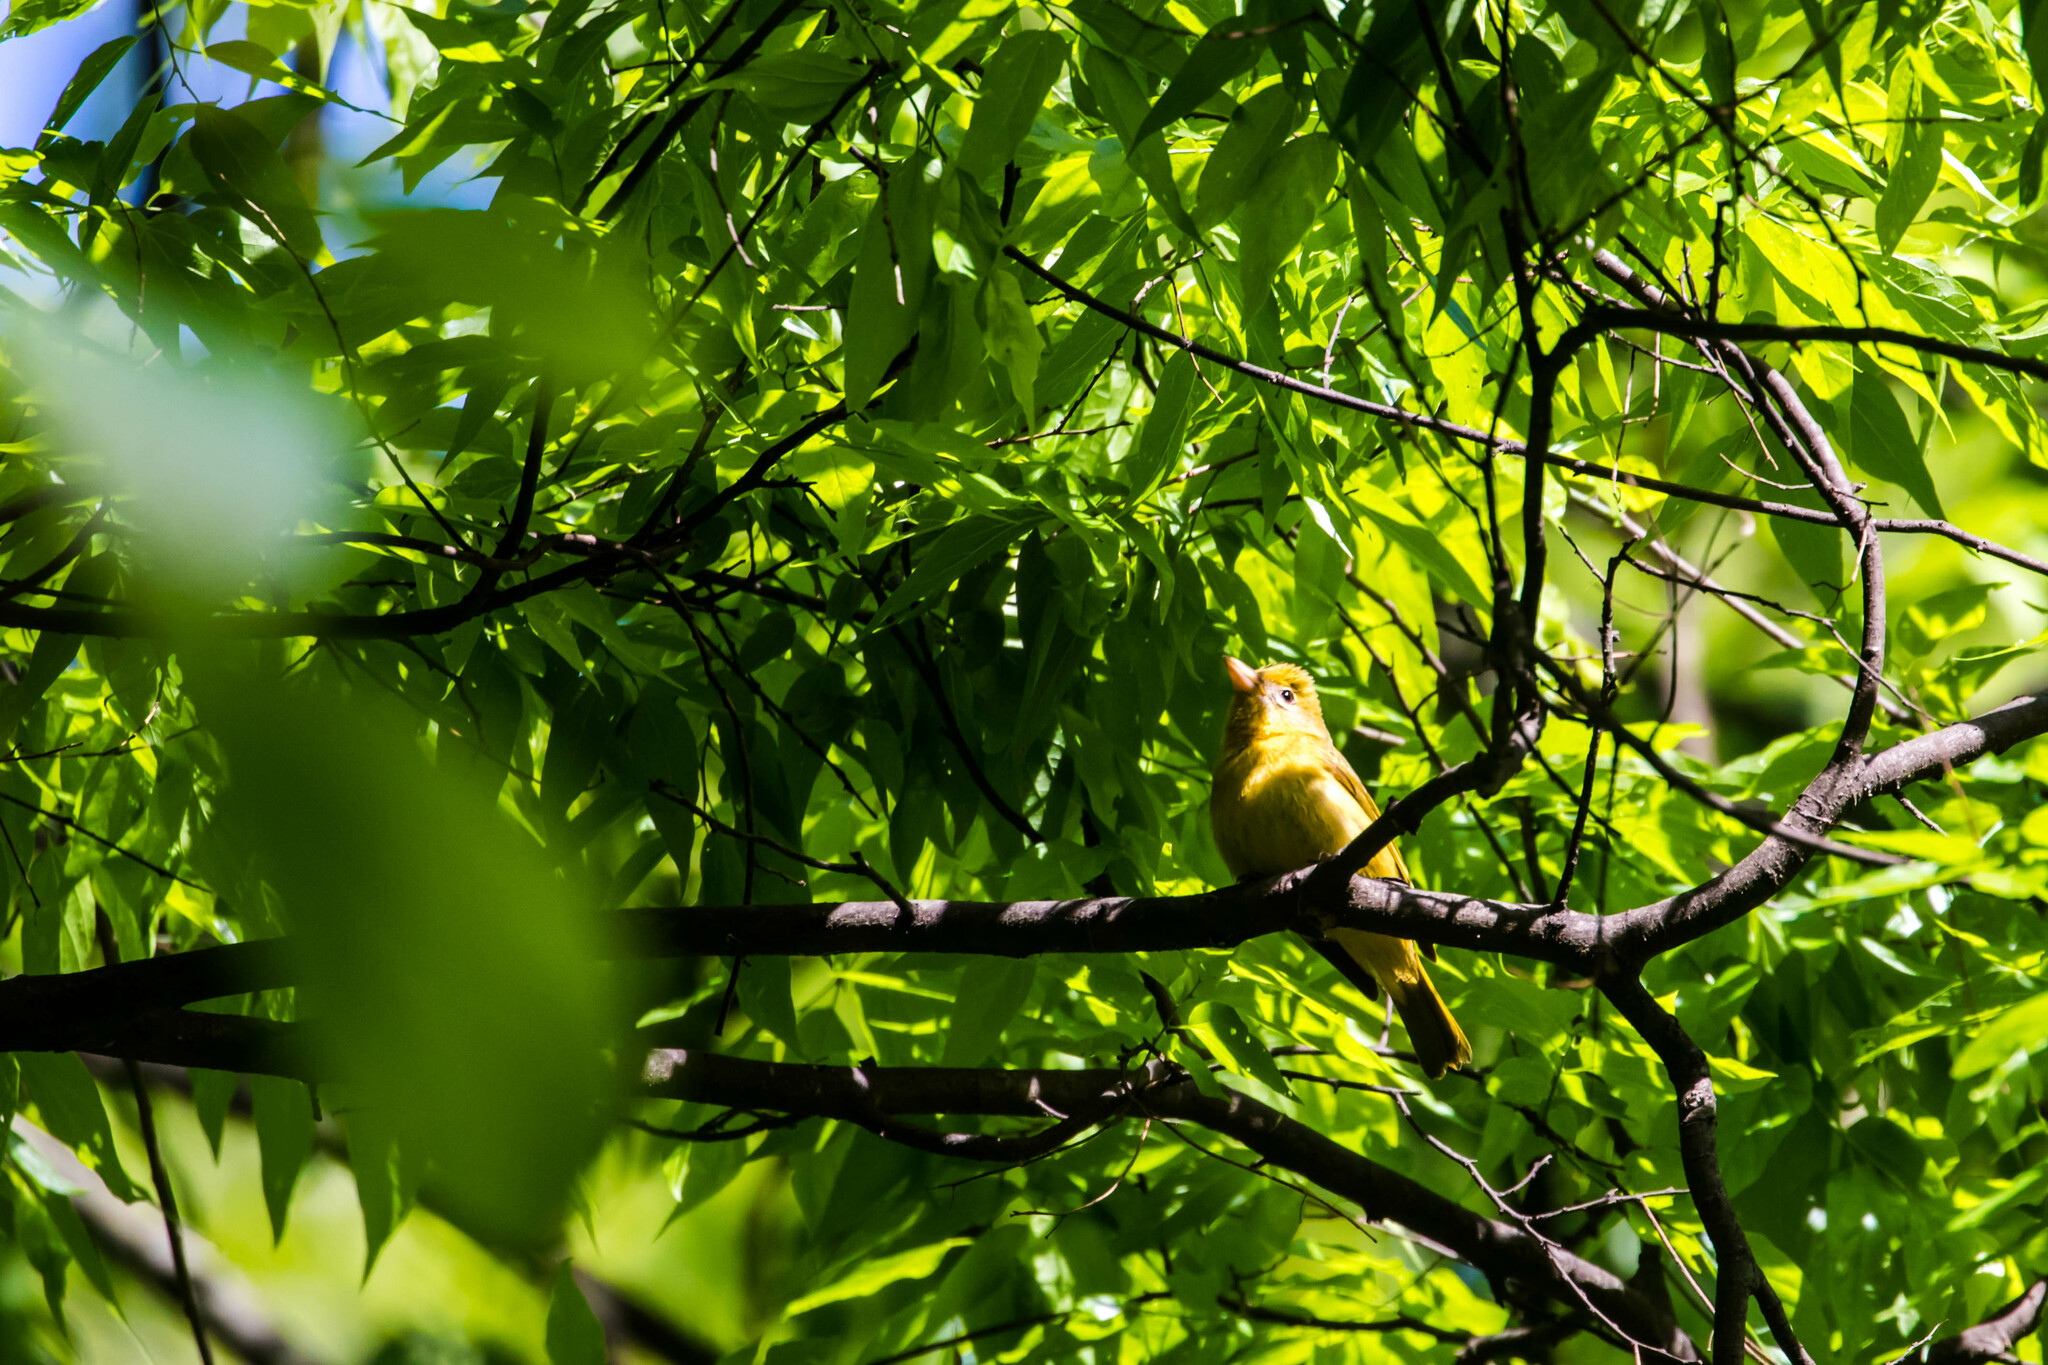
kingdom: Animalia
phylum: Chordata
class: Aves
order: Passeriformes
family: Cardinalidae
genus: Piranga
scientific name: Piranga rubra
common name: Summer tanager
